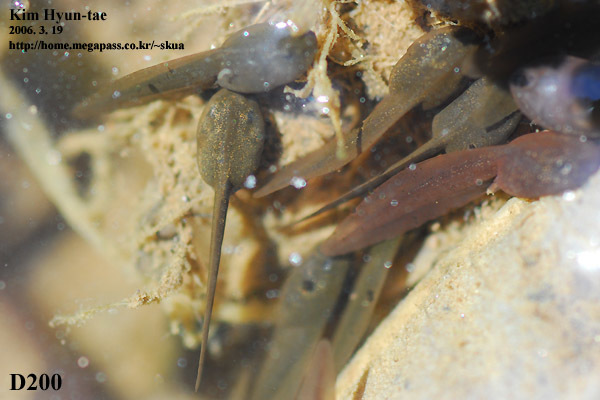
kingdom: Animalia
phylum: Chordata
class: Amphibia
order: Anura
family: Ranidae
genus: Rana
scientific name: Rana uenoi
